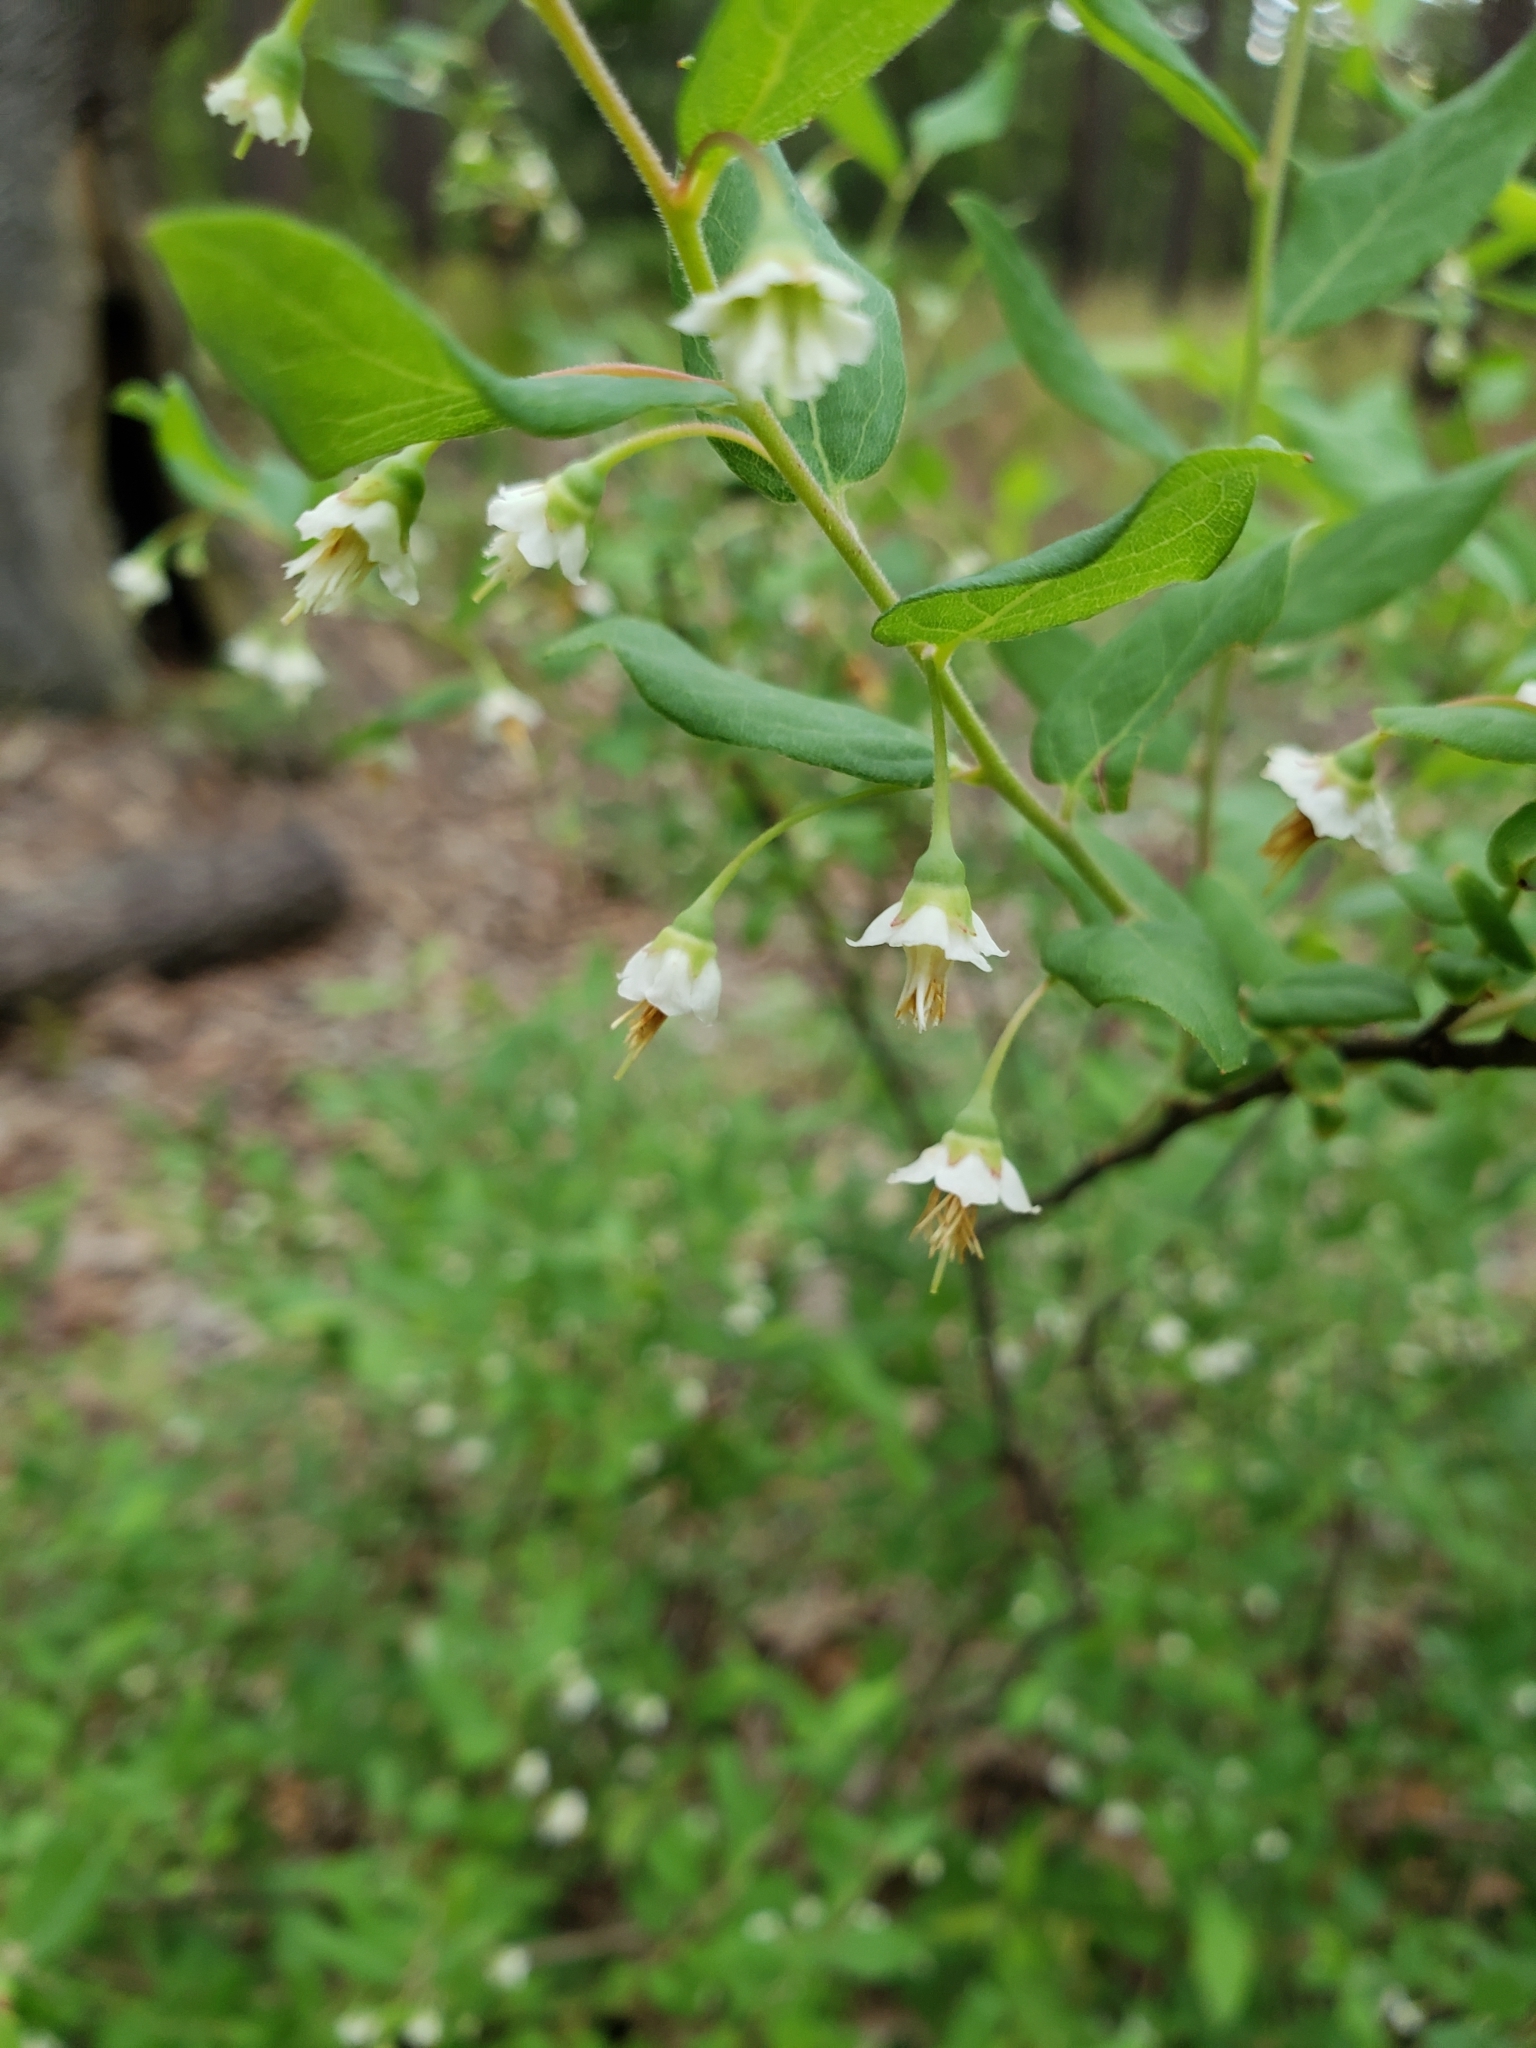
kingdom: Plantae
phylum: Tracheophyta
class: Magnoliopsida
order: Ericales
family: Ericaceae
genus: Vaccinium
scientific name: Vaccinium stamineum
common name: Deerberry
